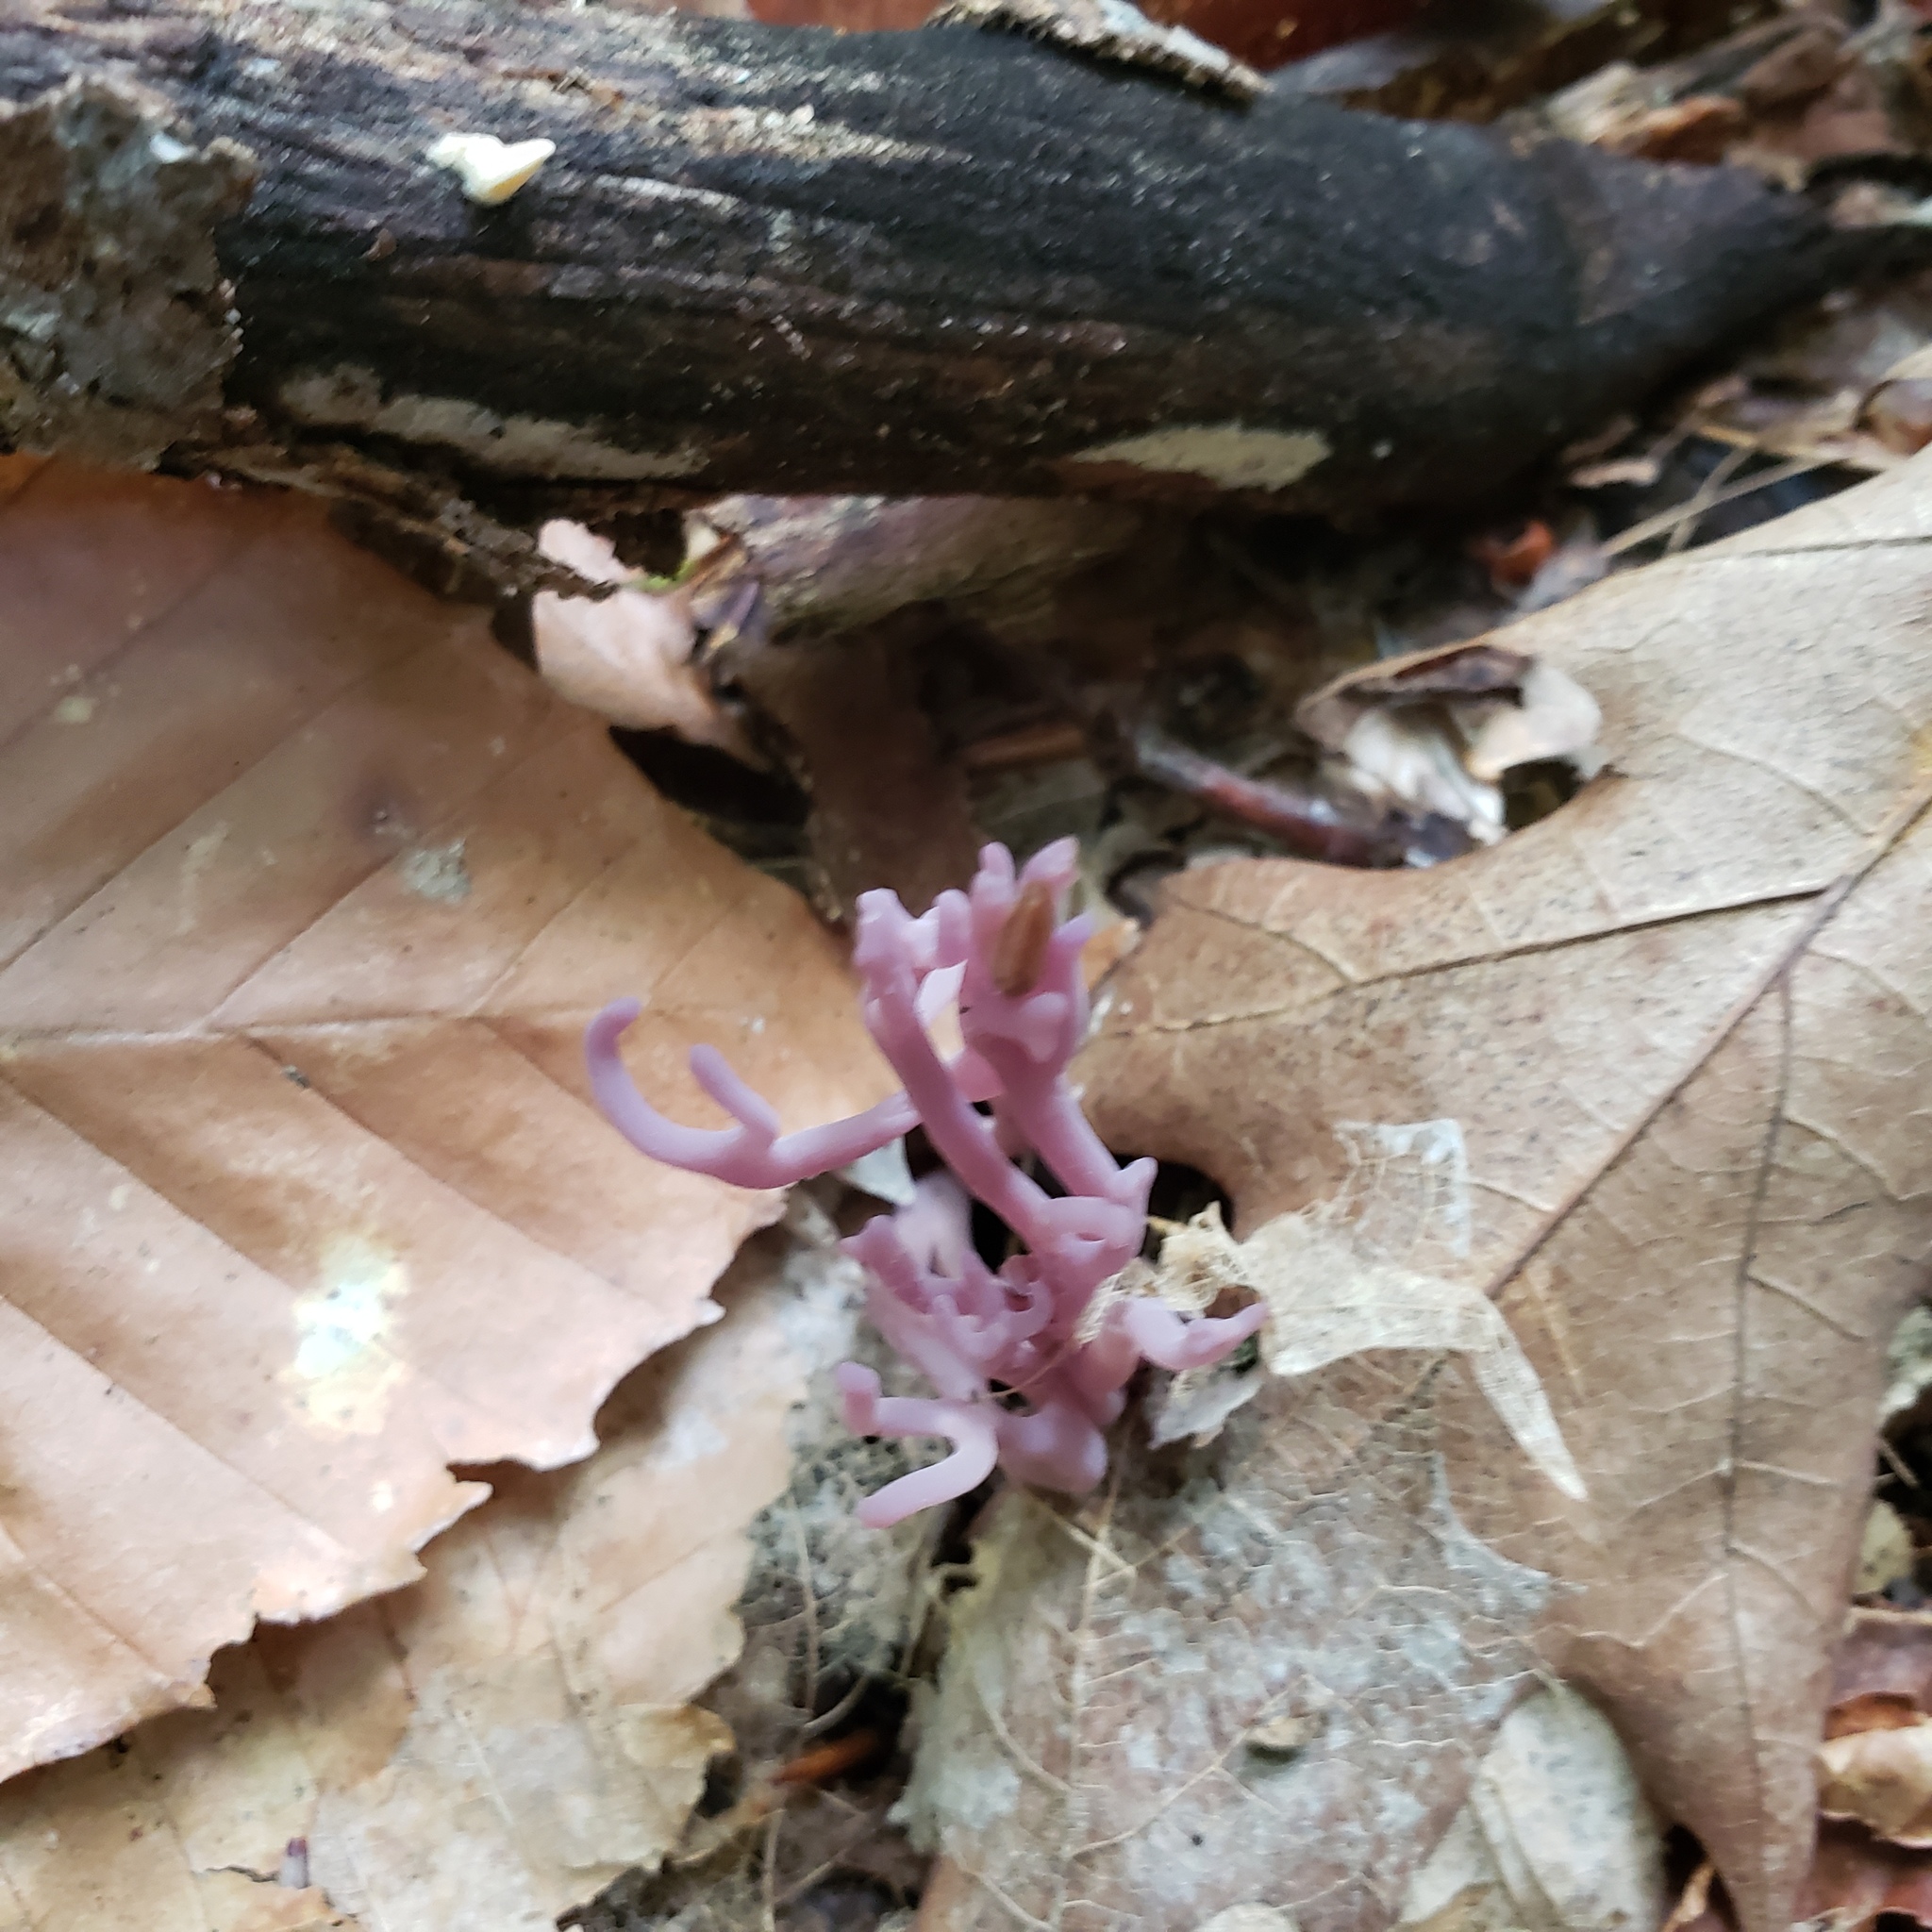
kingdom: Fungi
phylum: Basidiomycota
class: Agaricomycetes
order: Agaricales
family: Clavariaceae
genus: Clavaria
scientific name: Clavaria zollingeri
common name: Violet coral
